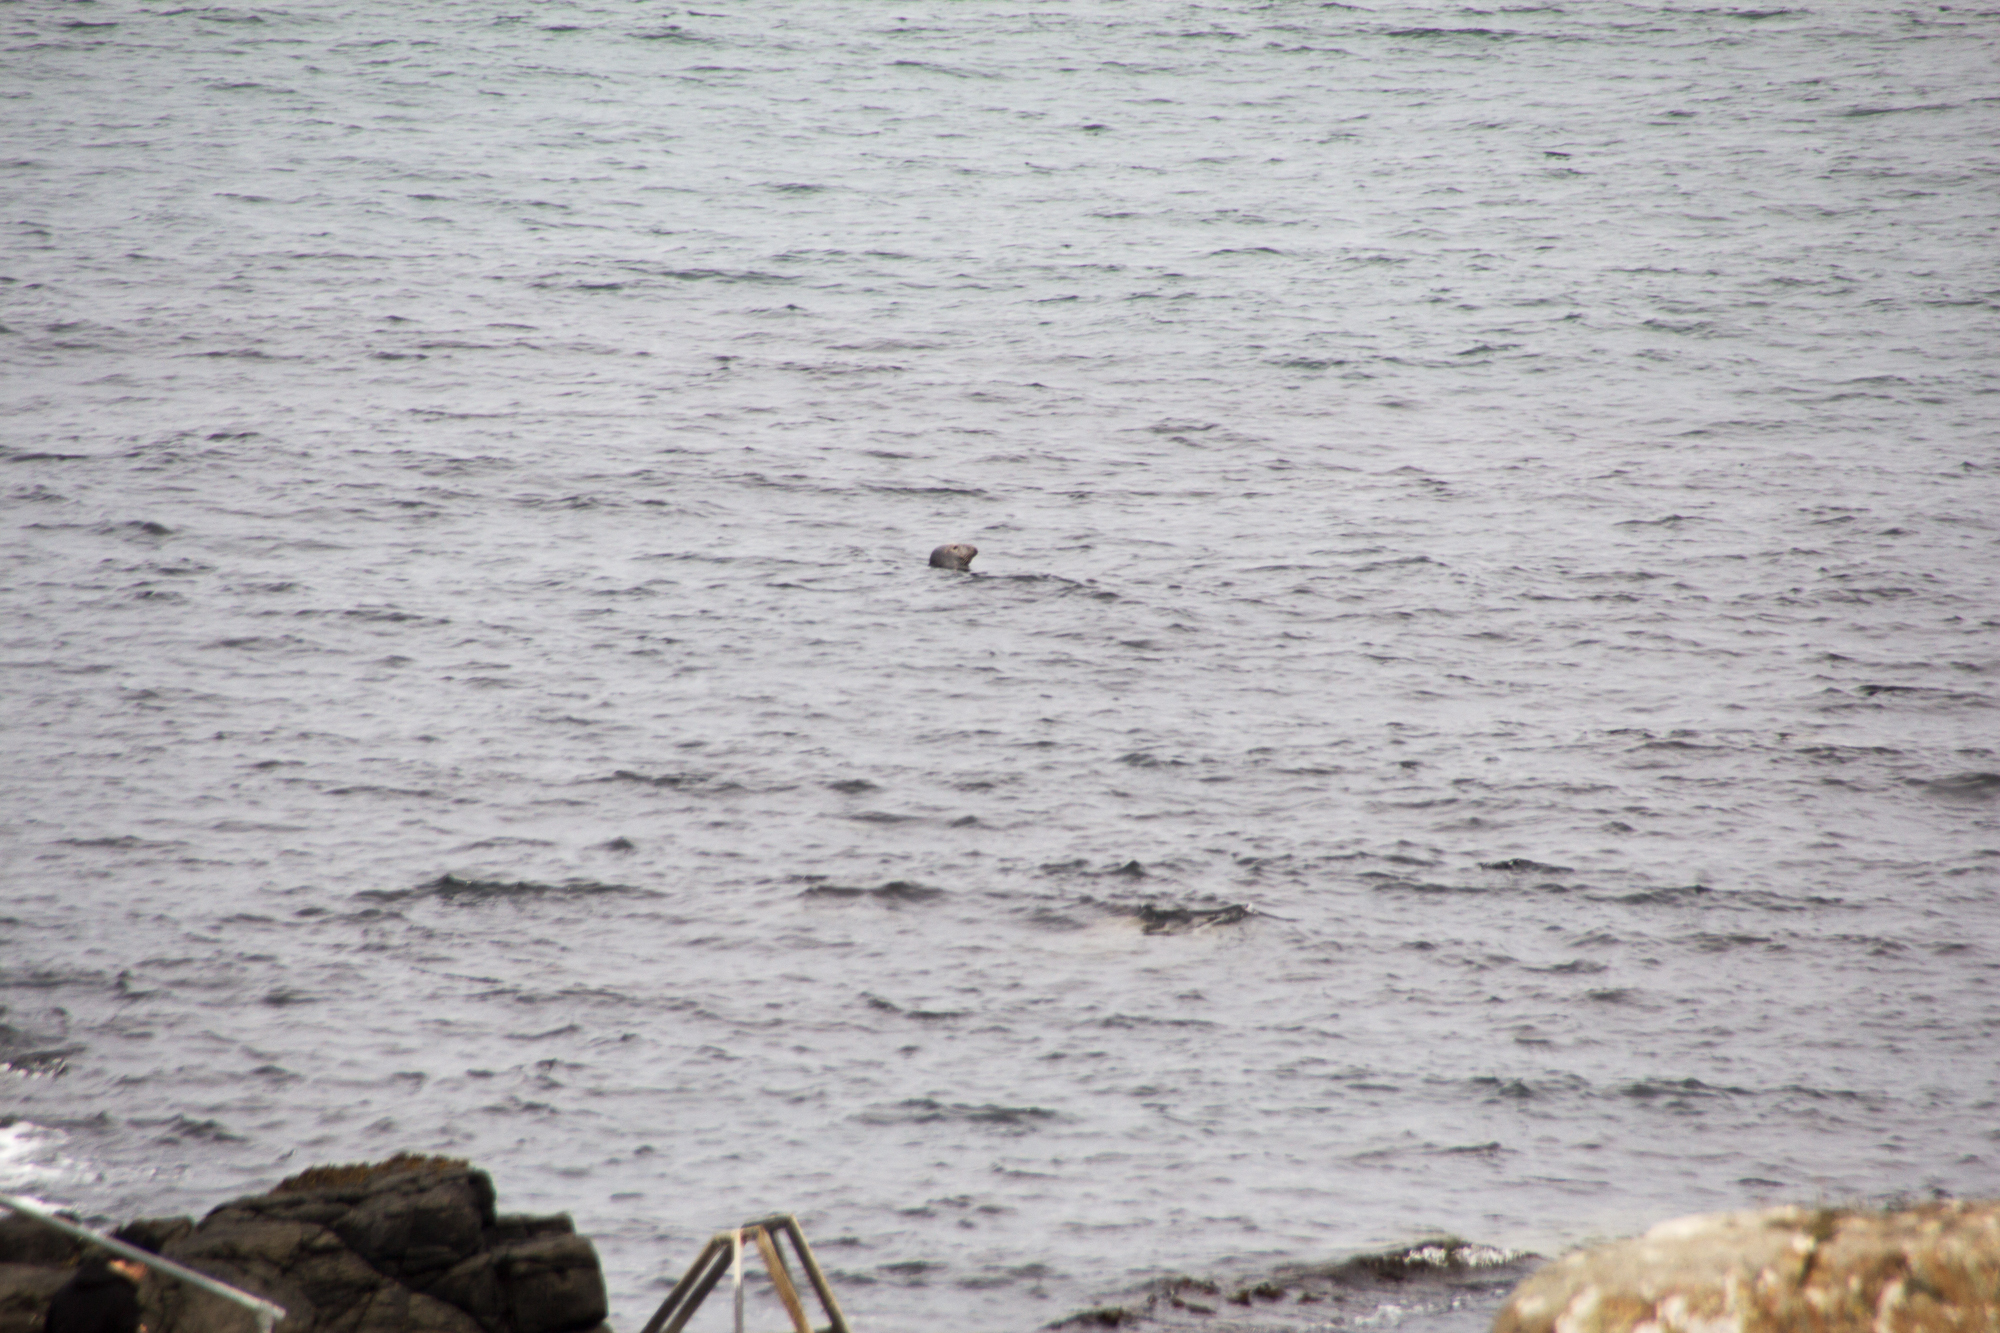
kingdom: Animalia
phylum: Chordata
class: Mammalia
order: Carnivora
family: Phocidae
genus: Halichoerus
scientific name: Halichoerus grypus
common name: Grey seal
